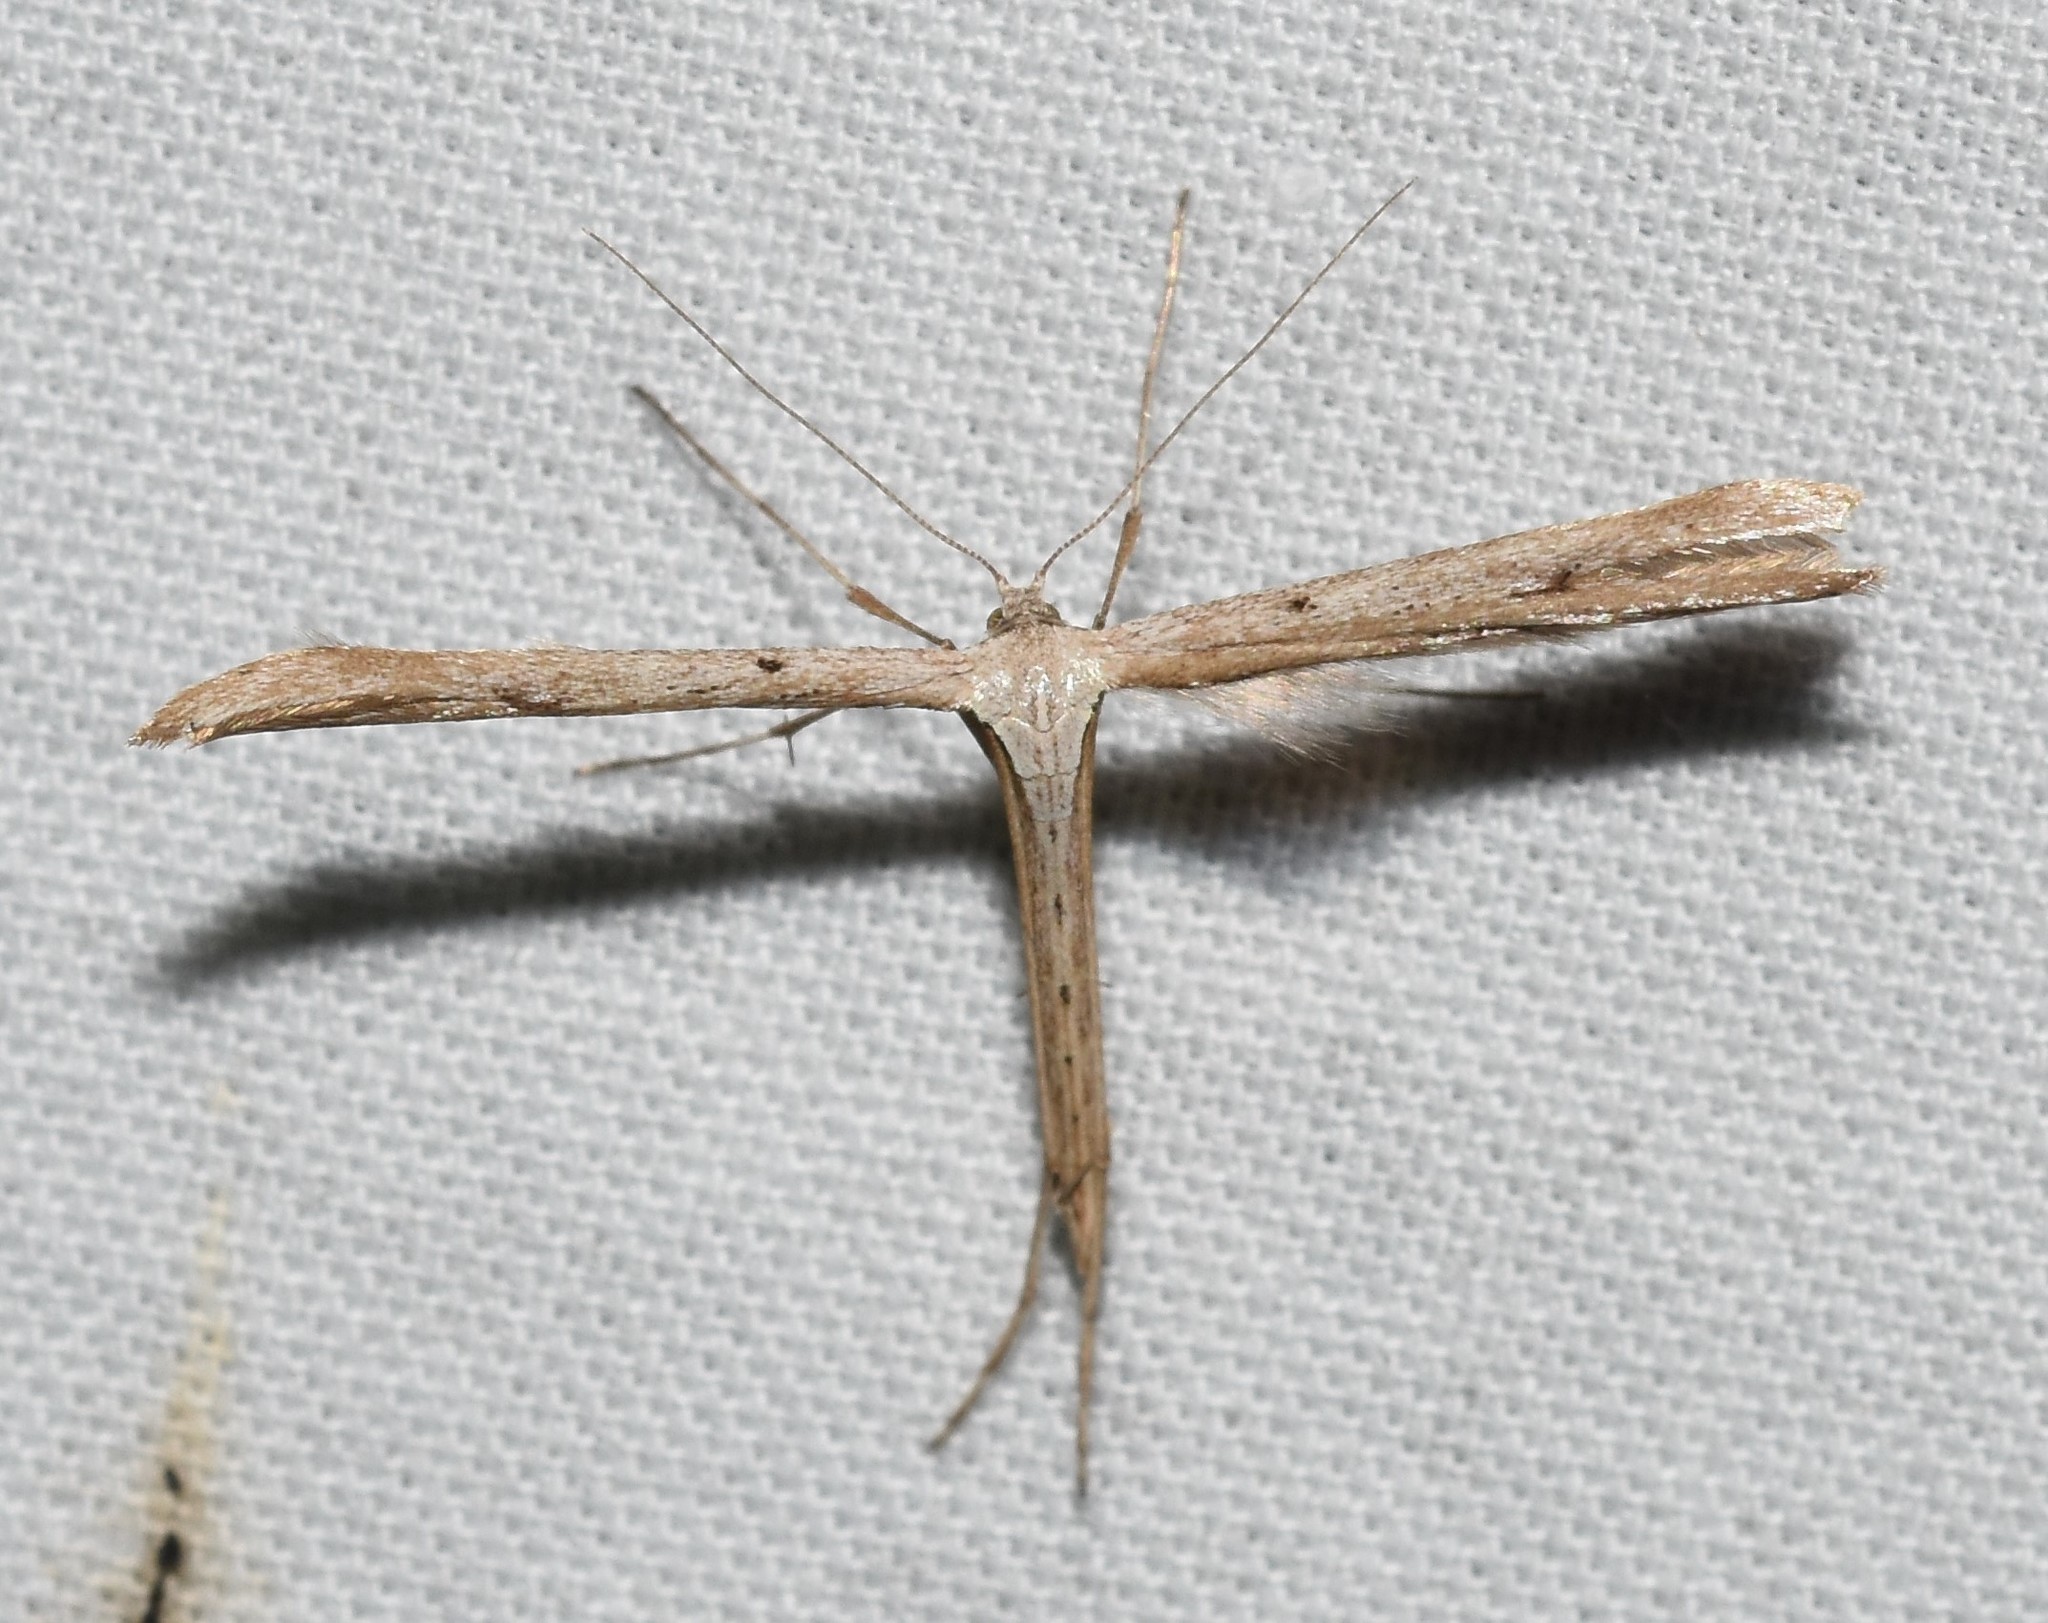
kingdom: Animalia
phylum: Arthropoda
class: Insecta
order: Lepidoptera
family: Pterophoridae
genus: Emmelina
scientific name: Emmelina monodactyla
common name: Common plume
